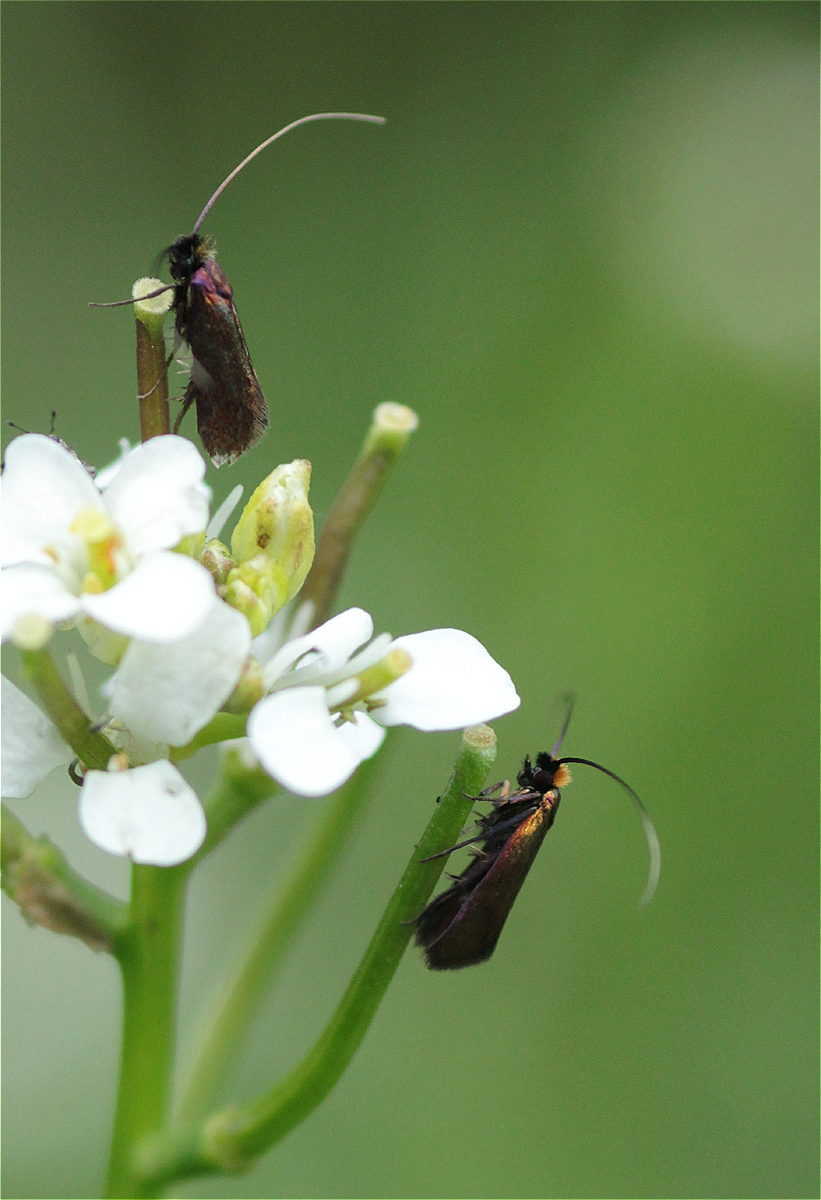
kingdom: Animalia
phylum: Arthropoda
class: Insecta
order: Lepidoptera
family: Adelidae
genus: Cauchas
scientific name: Cauchas rufimitrella
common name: Meadow long-horn
